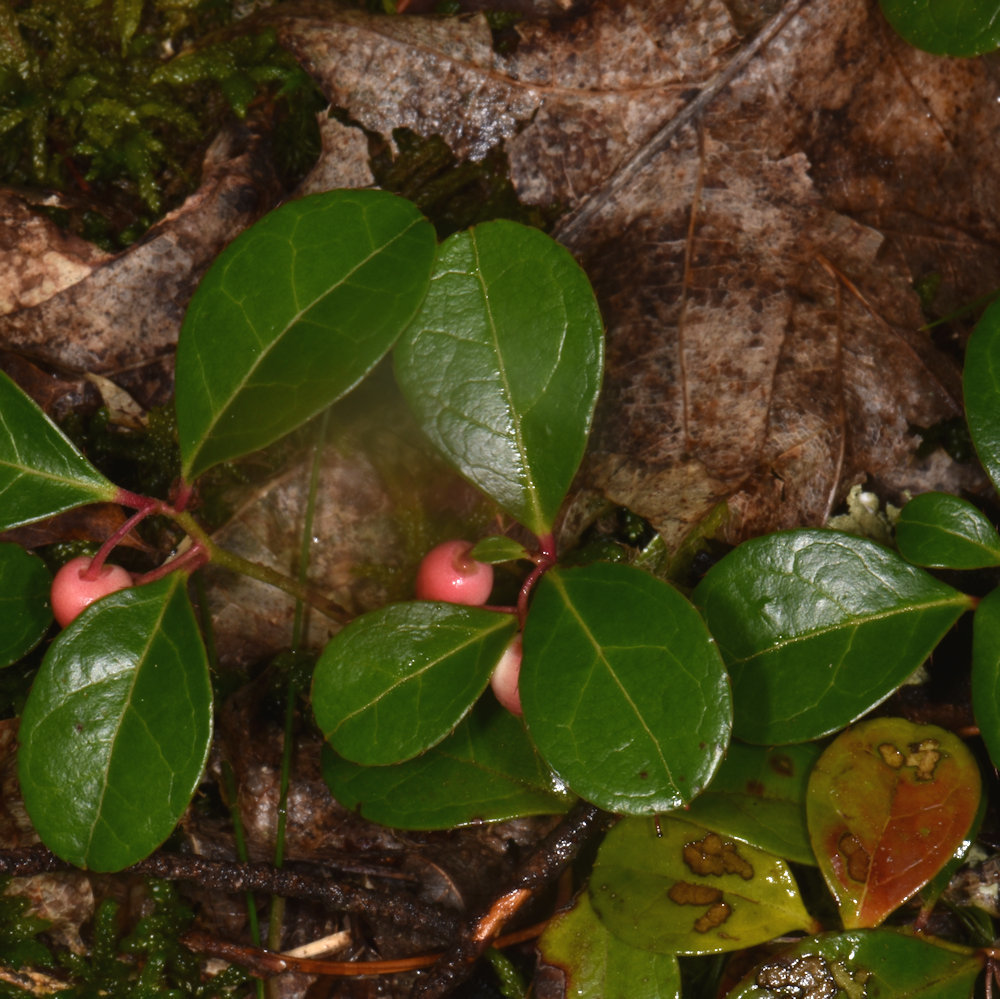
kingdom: Plantae
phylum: Tracheophyta
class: Magnoliopsida
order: Ericales
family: Ericaceae
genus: Gaultheria
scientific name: Gaultheria procumbens
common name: Checkerberry
